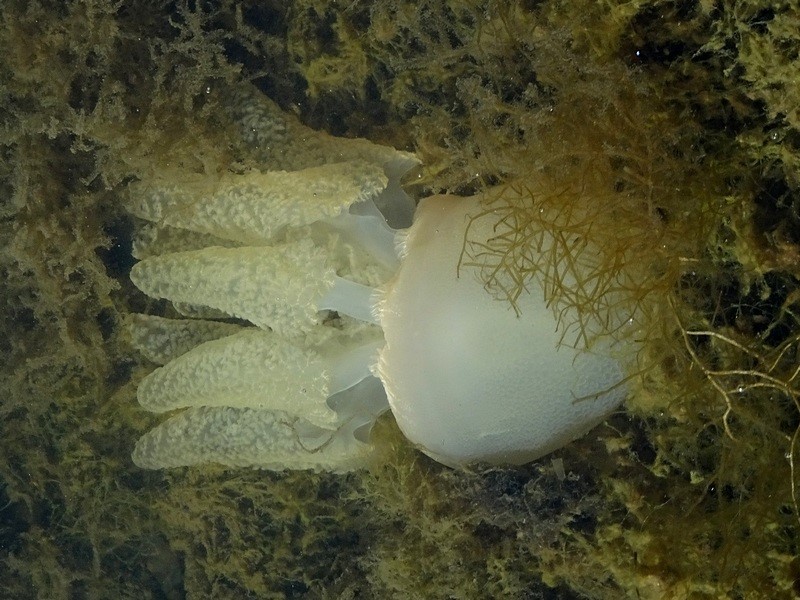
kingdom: Animalia
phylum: Cnidaria
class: Scyphozoa
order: Rhizostomeae
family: Catostylidae
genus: Catostylus
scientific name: Catostylus mosaicus
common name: Blue blubber
